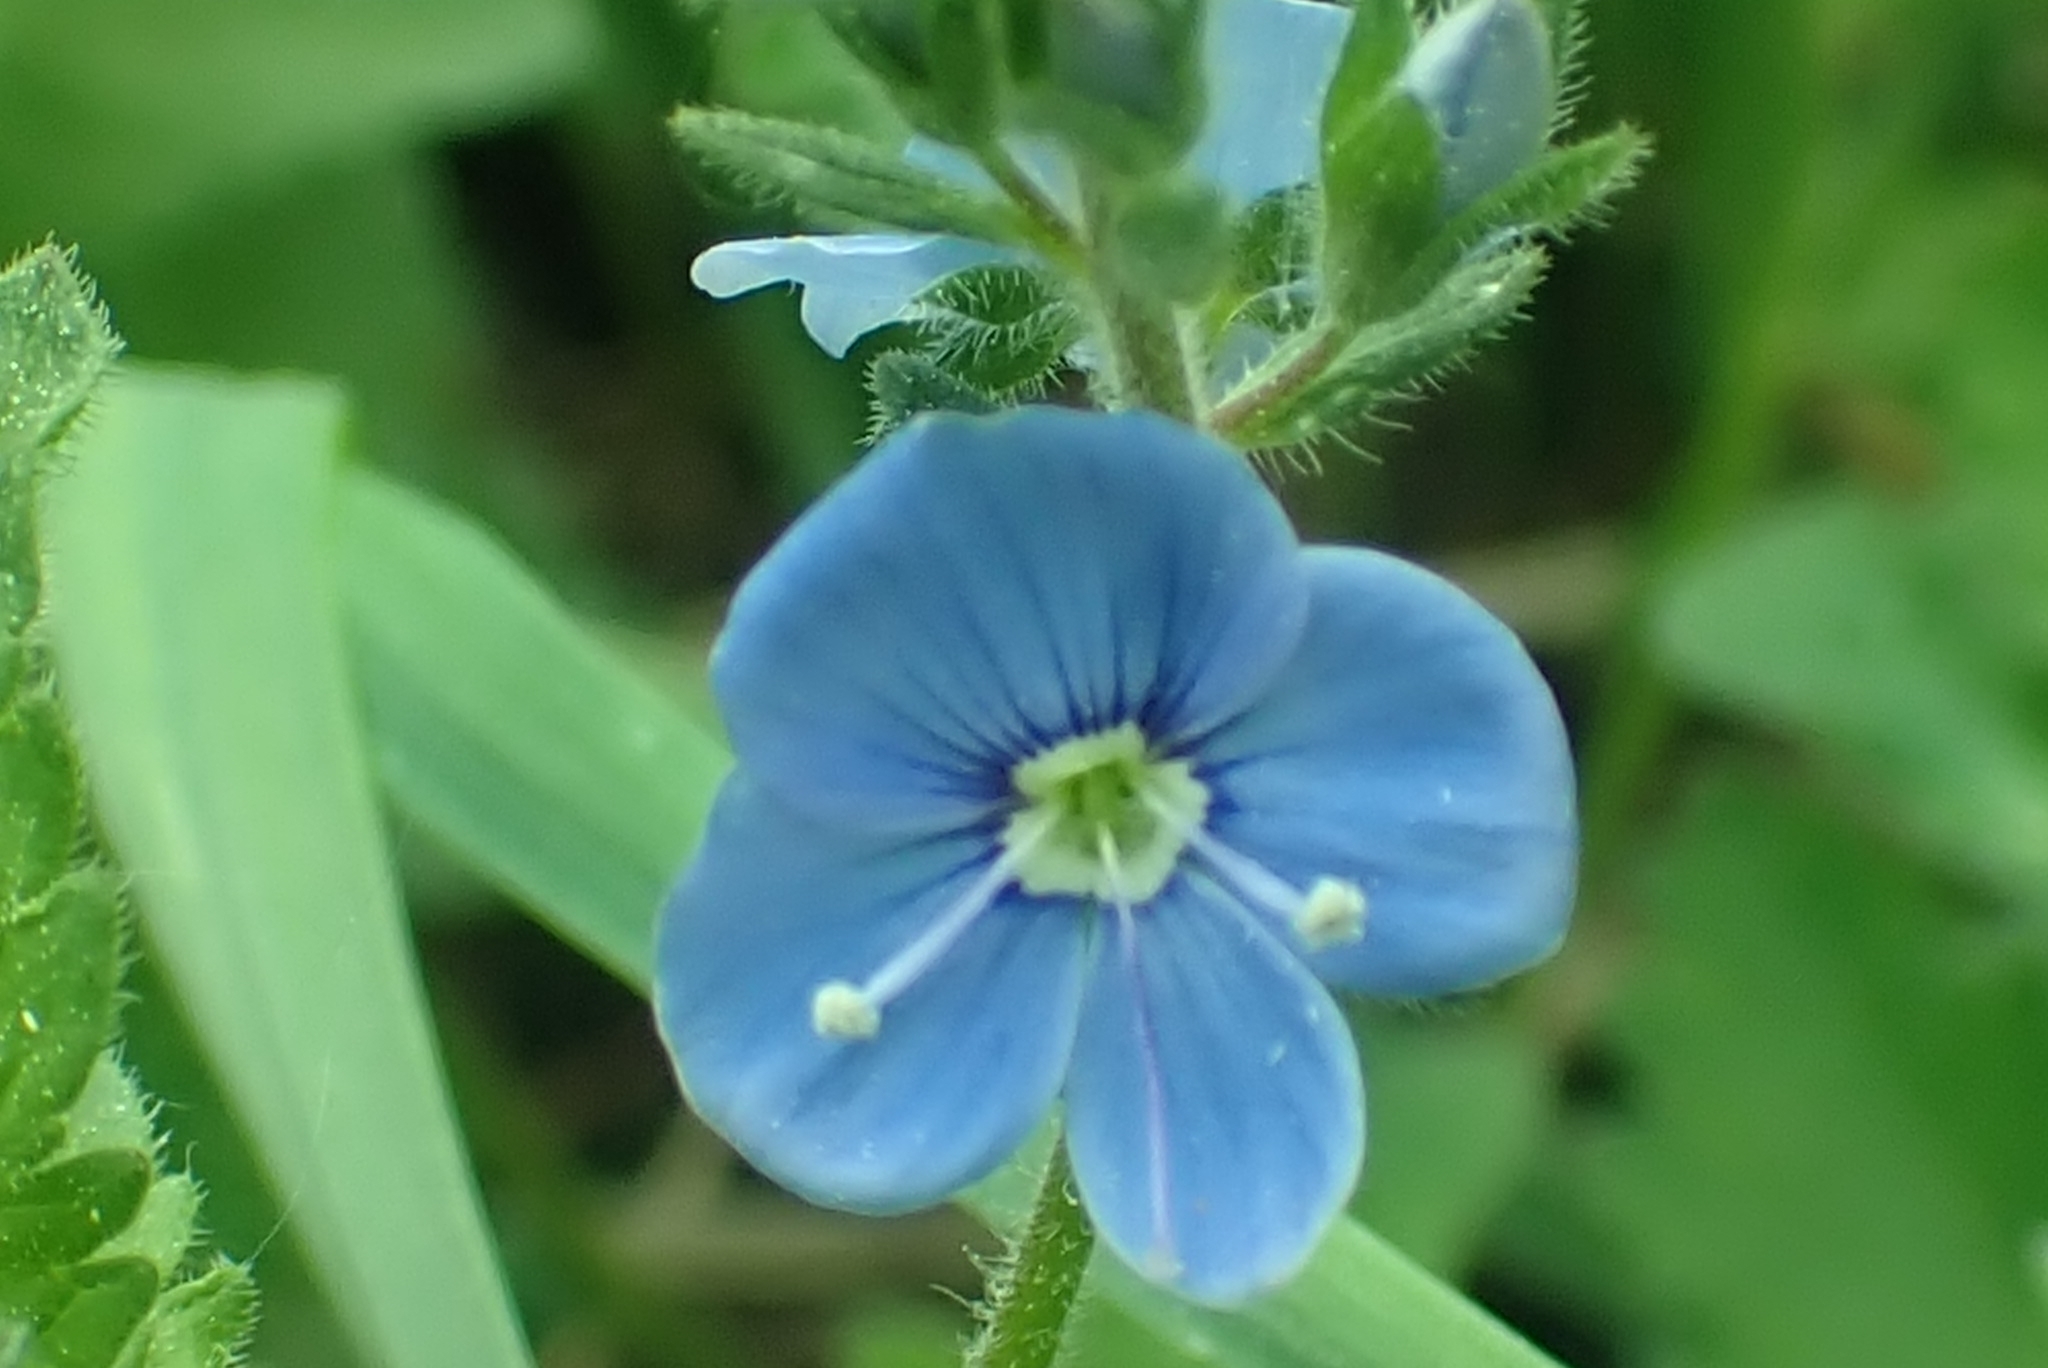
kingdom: Plantae
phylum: Tracheophyta
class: Magnoliopsida
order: Lamiales
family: Plantaginaceae
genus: Veronica
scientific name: Veronica chamaedrys
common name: Germander speedwell
